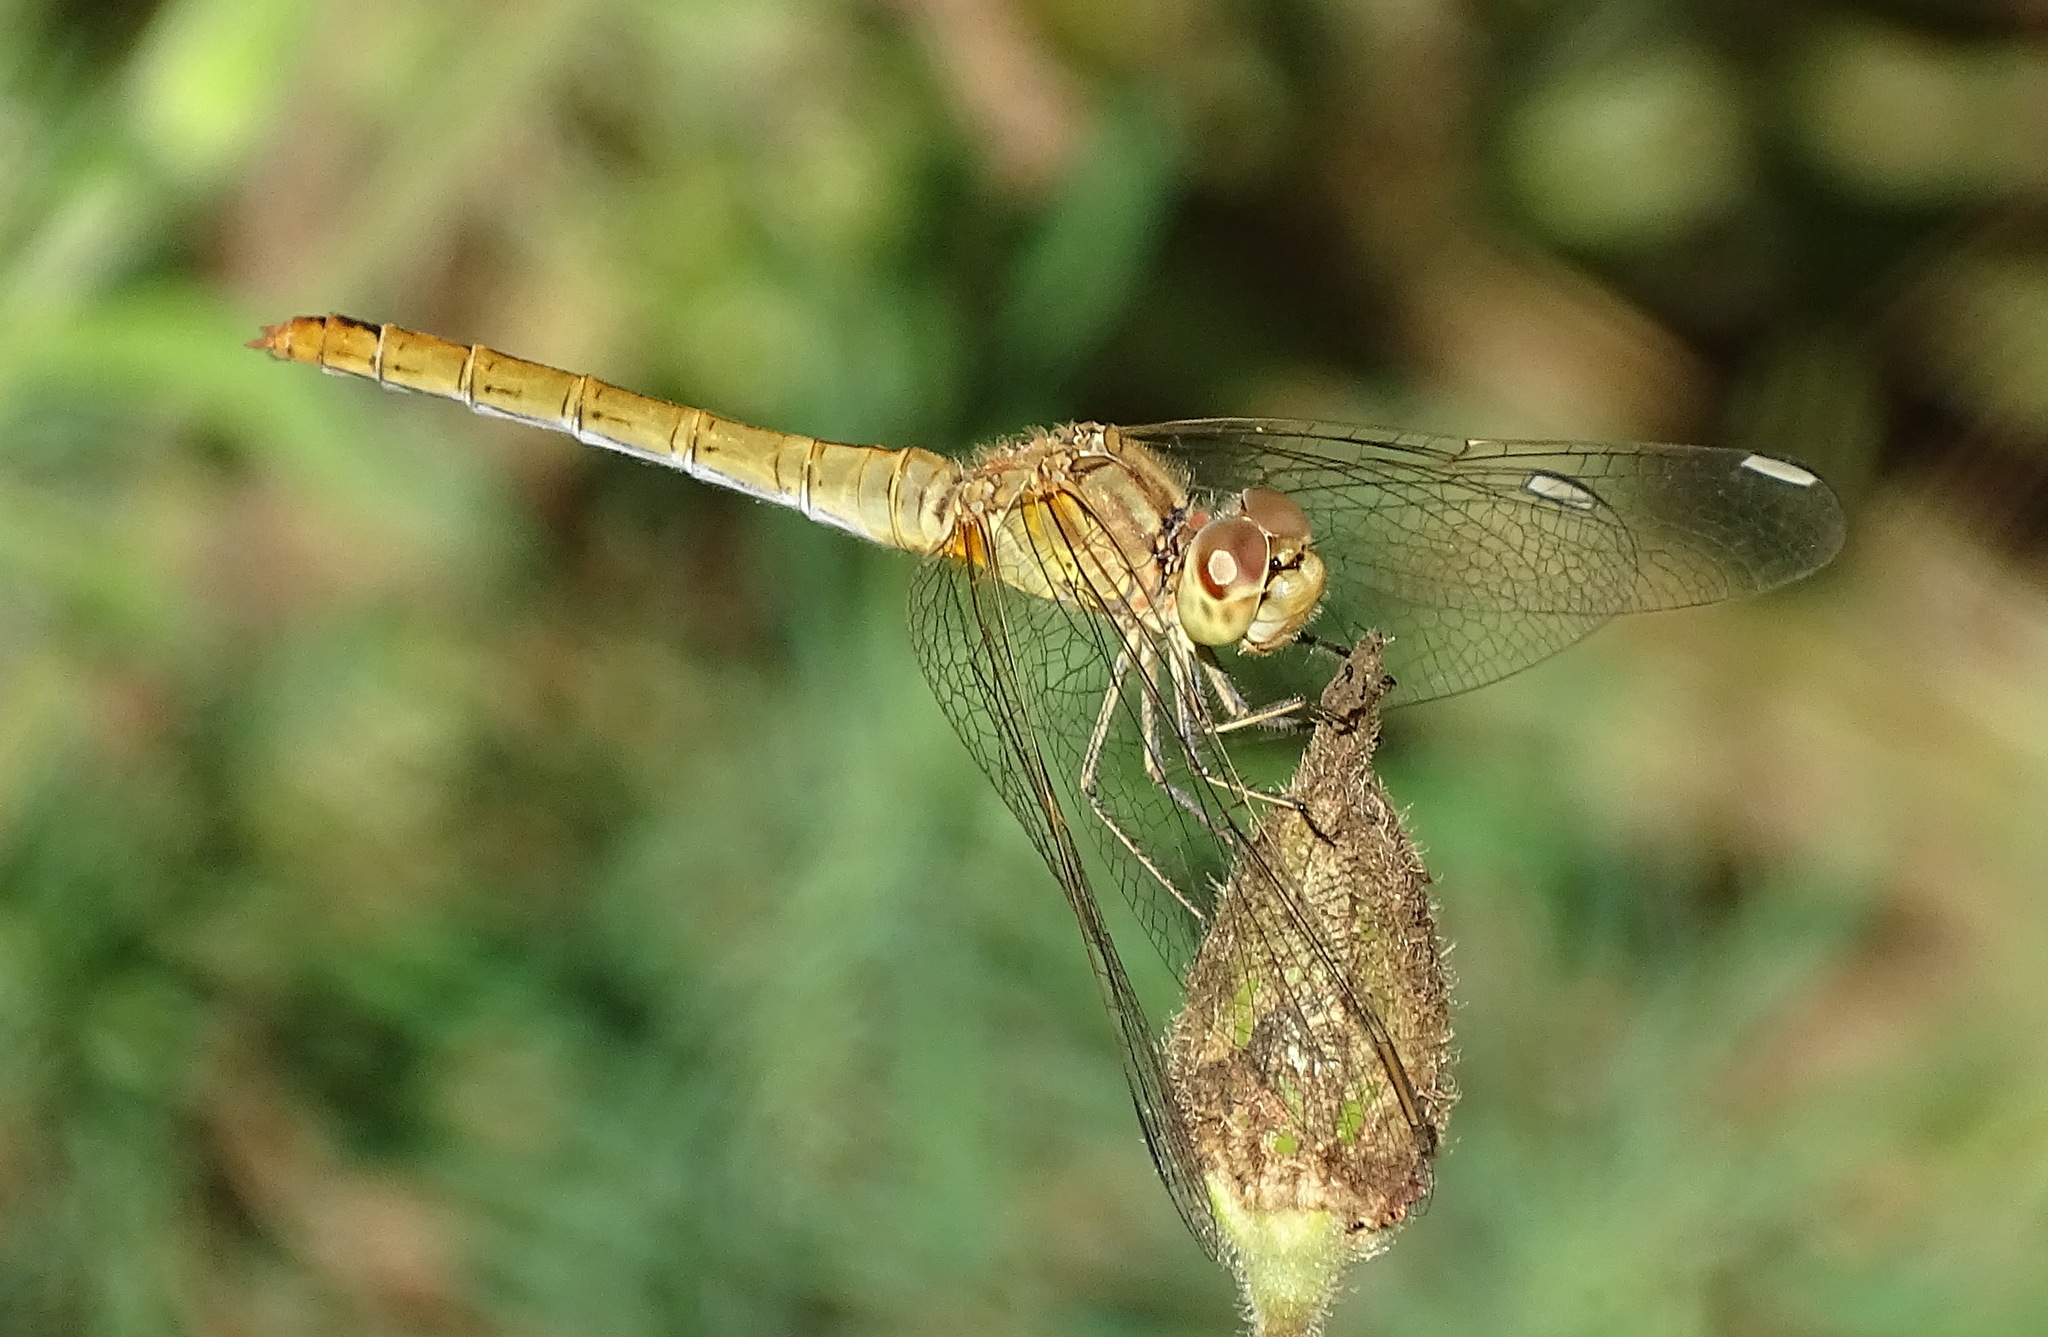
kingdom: Animalia
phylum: Arthropoda
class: Insecta
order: Odonata
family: Libellulidae
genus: Sympetrum
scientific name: Sympetrum meridionale
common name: Southern darter
